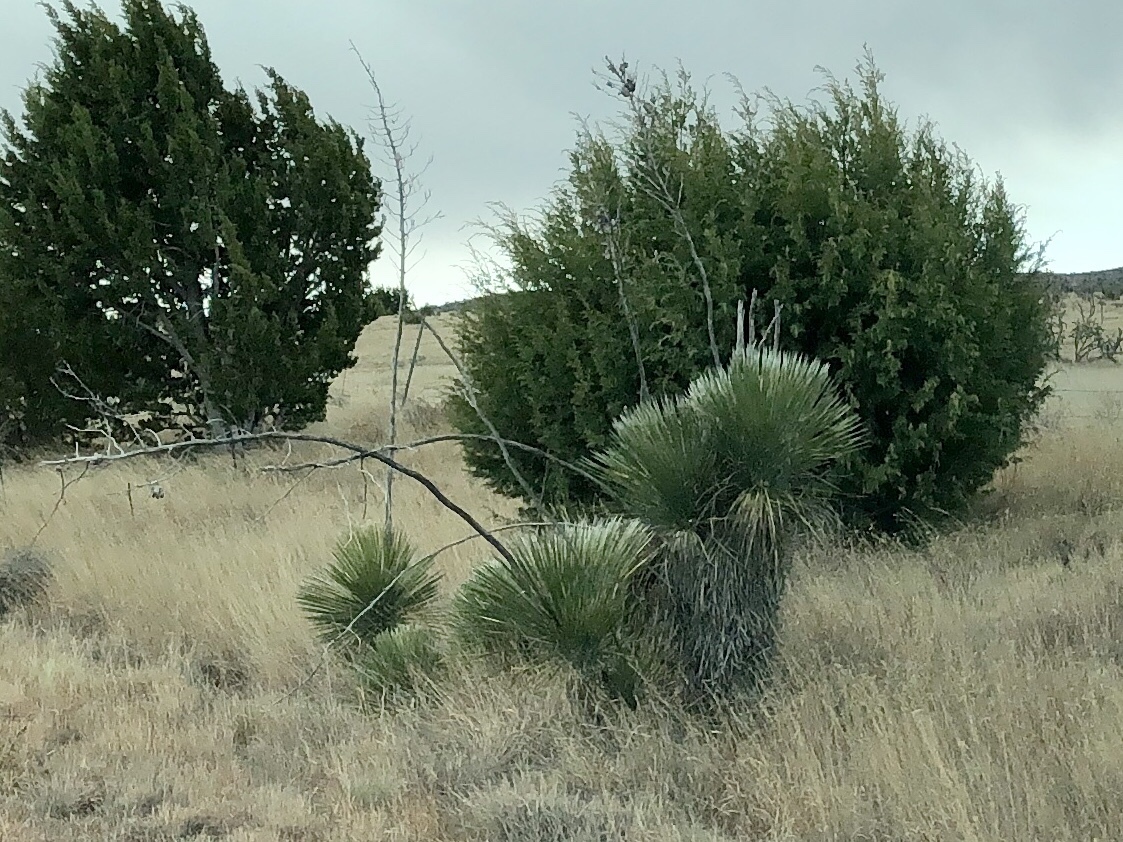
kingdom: Plantae
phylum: Tracheophyta
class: Liliopsida
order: Asparagales
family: Asparagaceae
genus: Yucca
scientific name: Yucca elata
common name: Palmella
